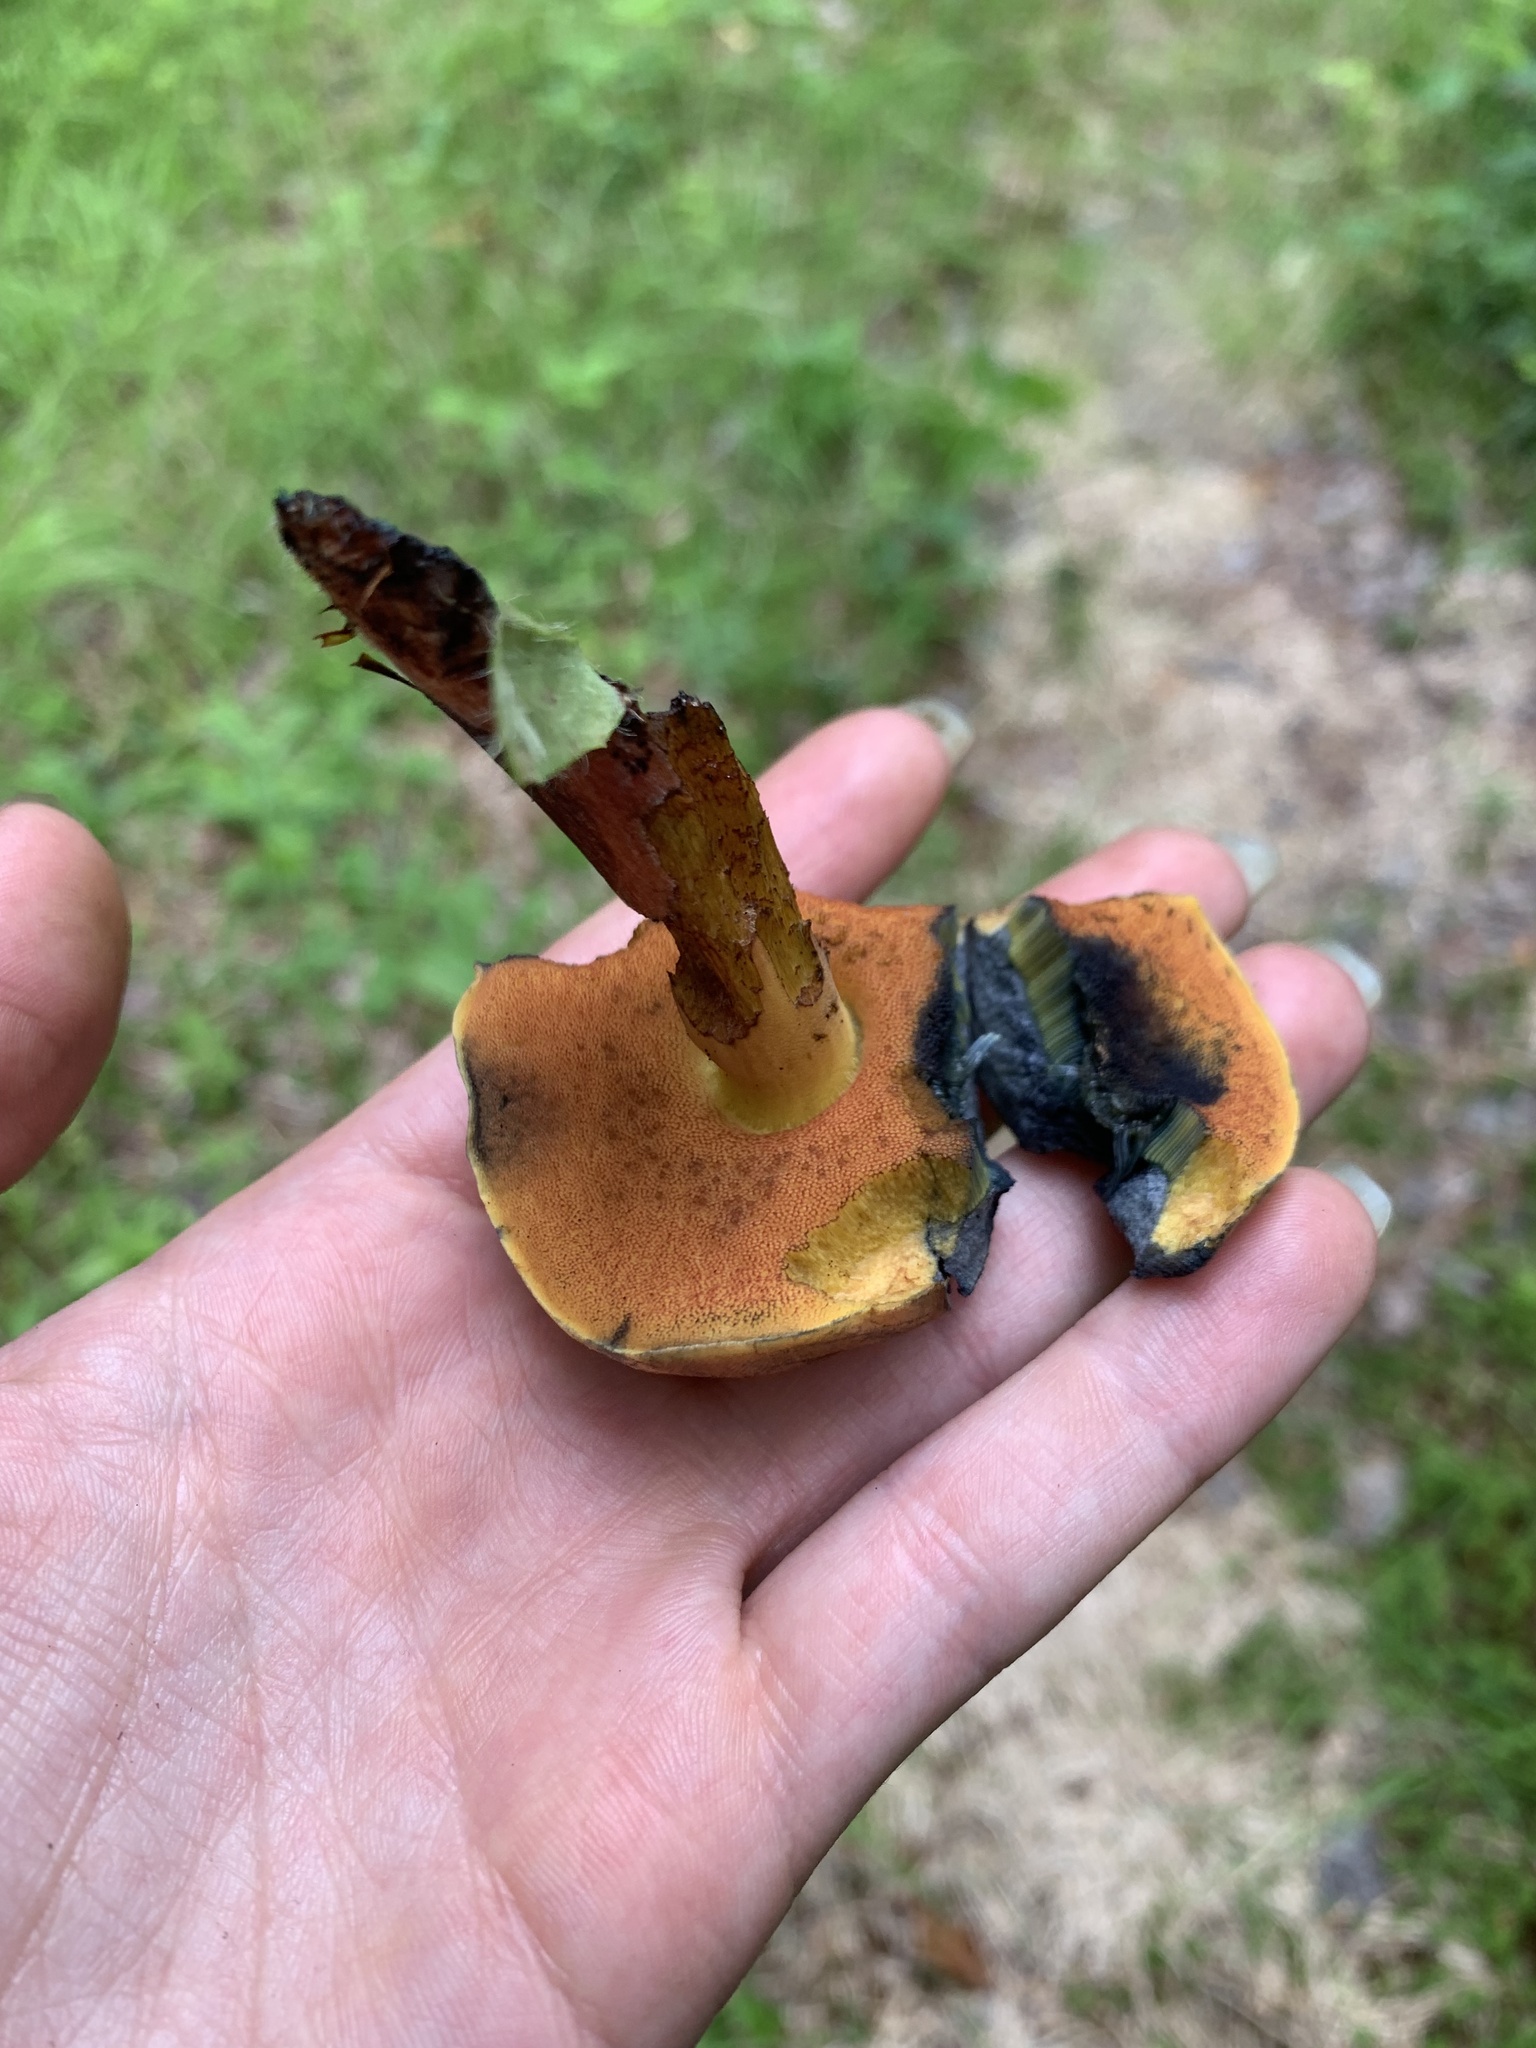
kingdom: Fungi
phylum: Basidiomycota
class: Agaricomycetes
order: Boletales
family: Boletaceae
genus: Boletus
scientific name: Boletus subvelutipes
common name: Red-mouth bolete
